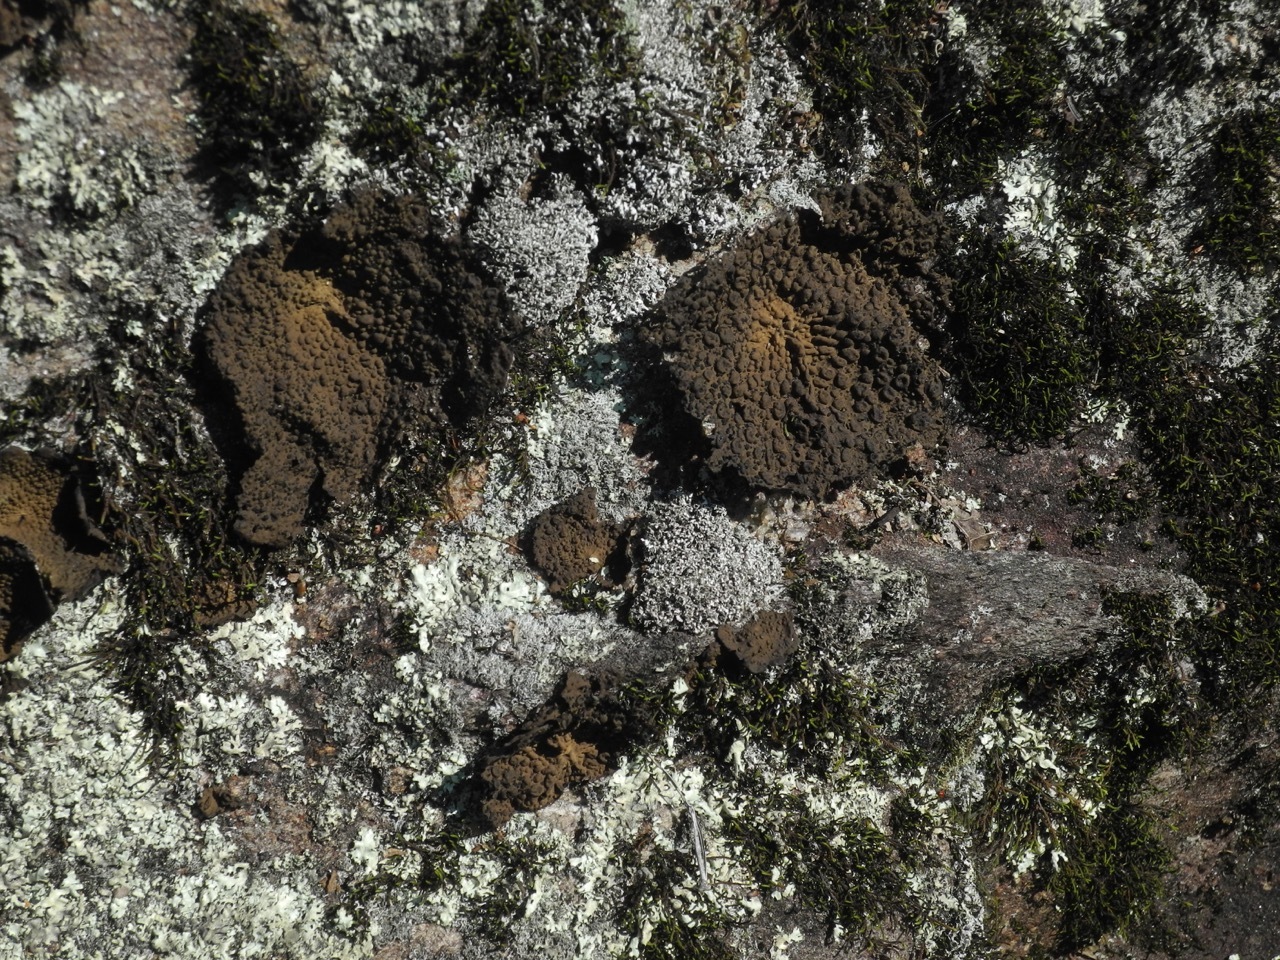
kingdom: Fungi
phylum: Ascomycota
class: Lecanoromycetes
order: Umbilicariales
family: Umbilicariaceae
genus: Lasallia
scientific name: Lasallia papulosa
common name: Common toadskin lichen
